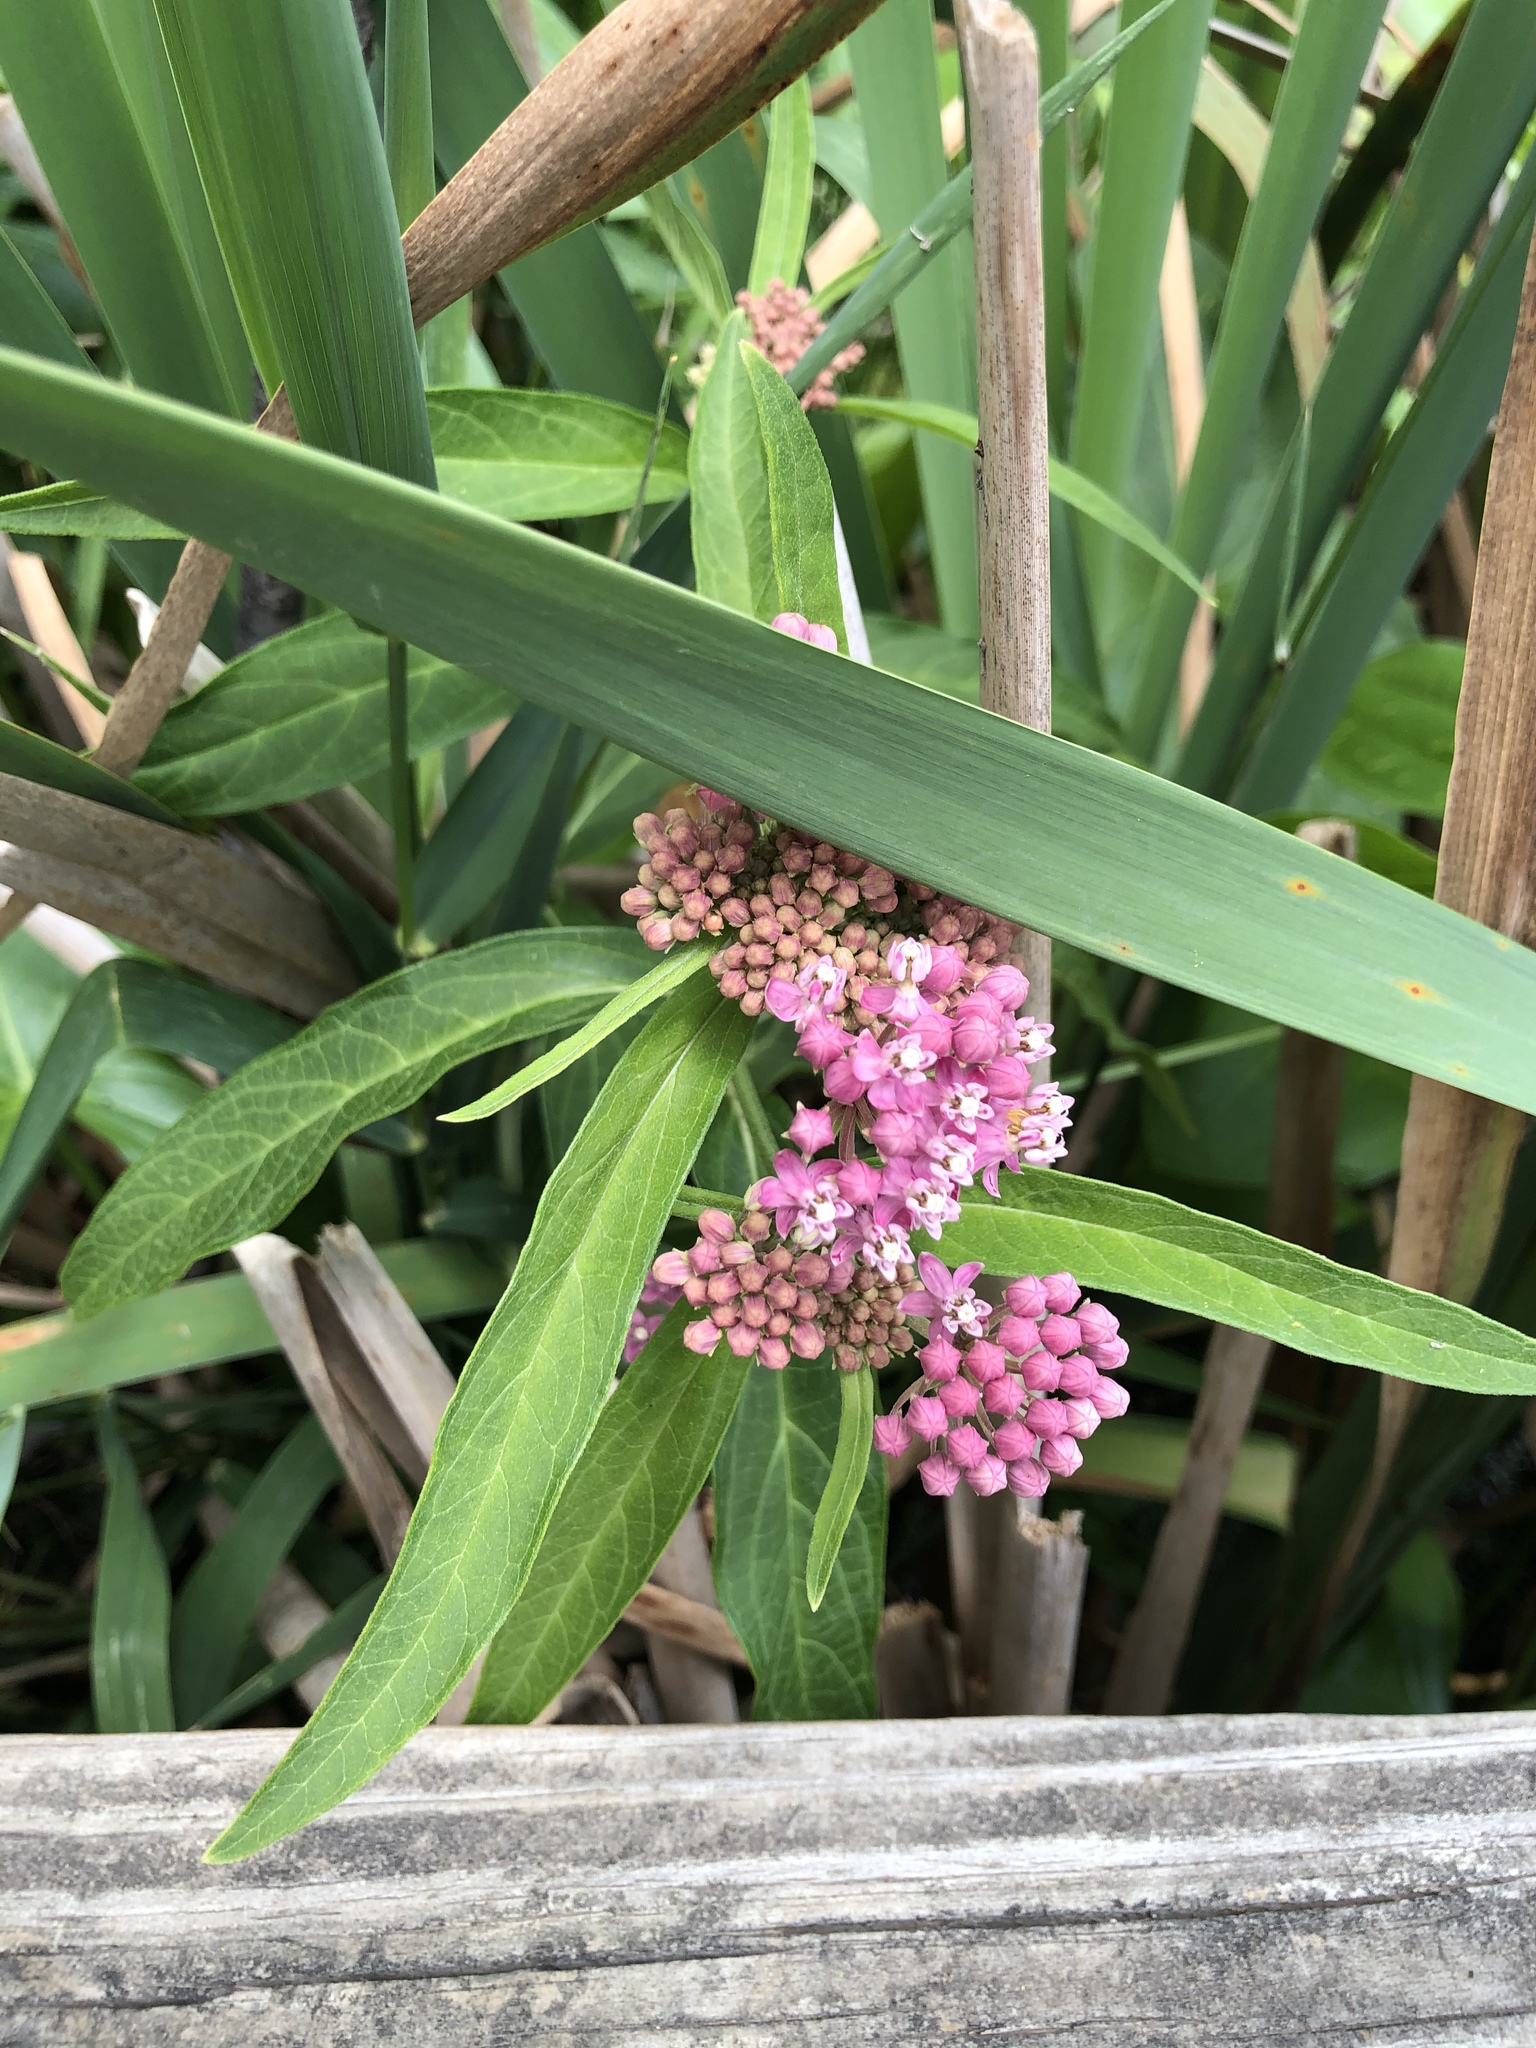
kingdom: Plantae
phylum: Tracheophyta
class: Magnoliopsida
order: Gentianales
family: Apocynaceae
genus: Asclepias
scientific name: Asclepias incarnata
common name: Swamp milkweed
